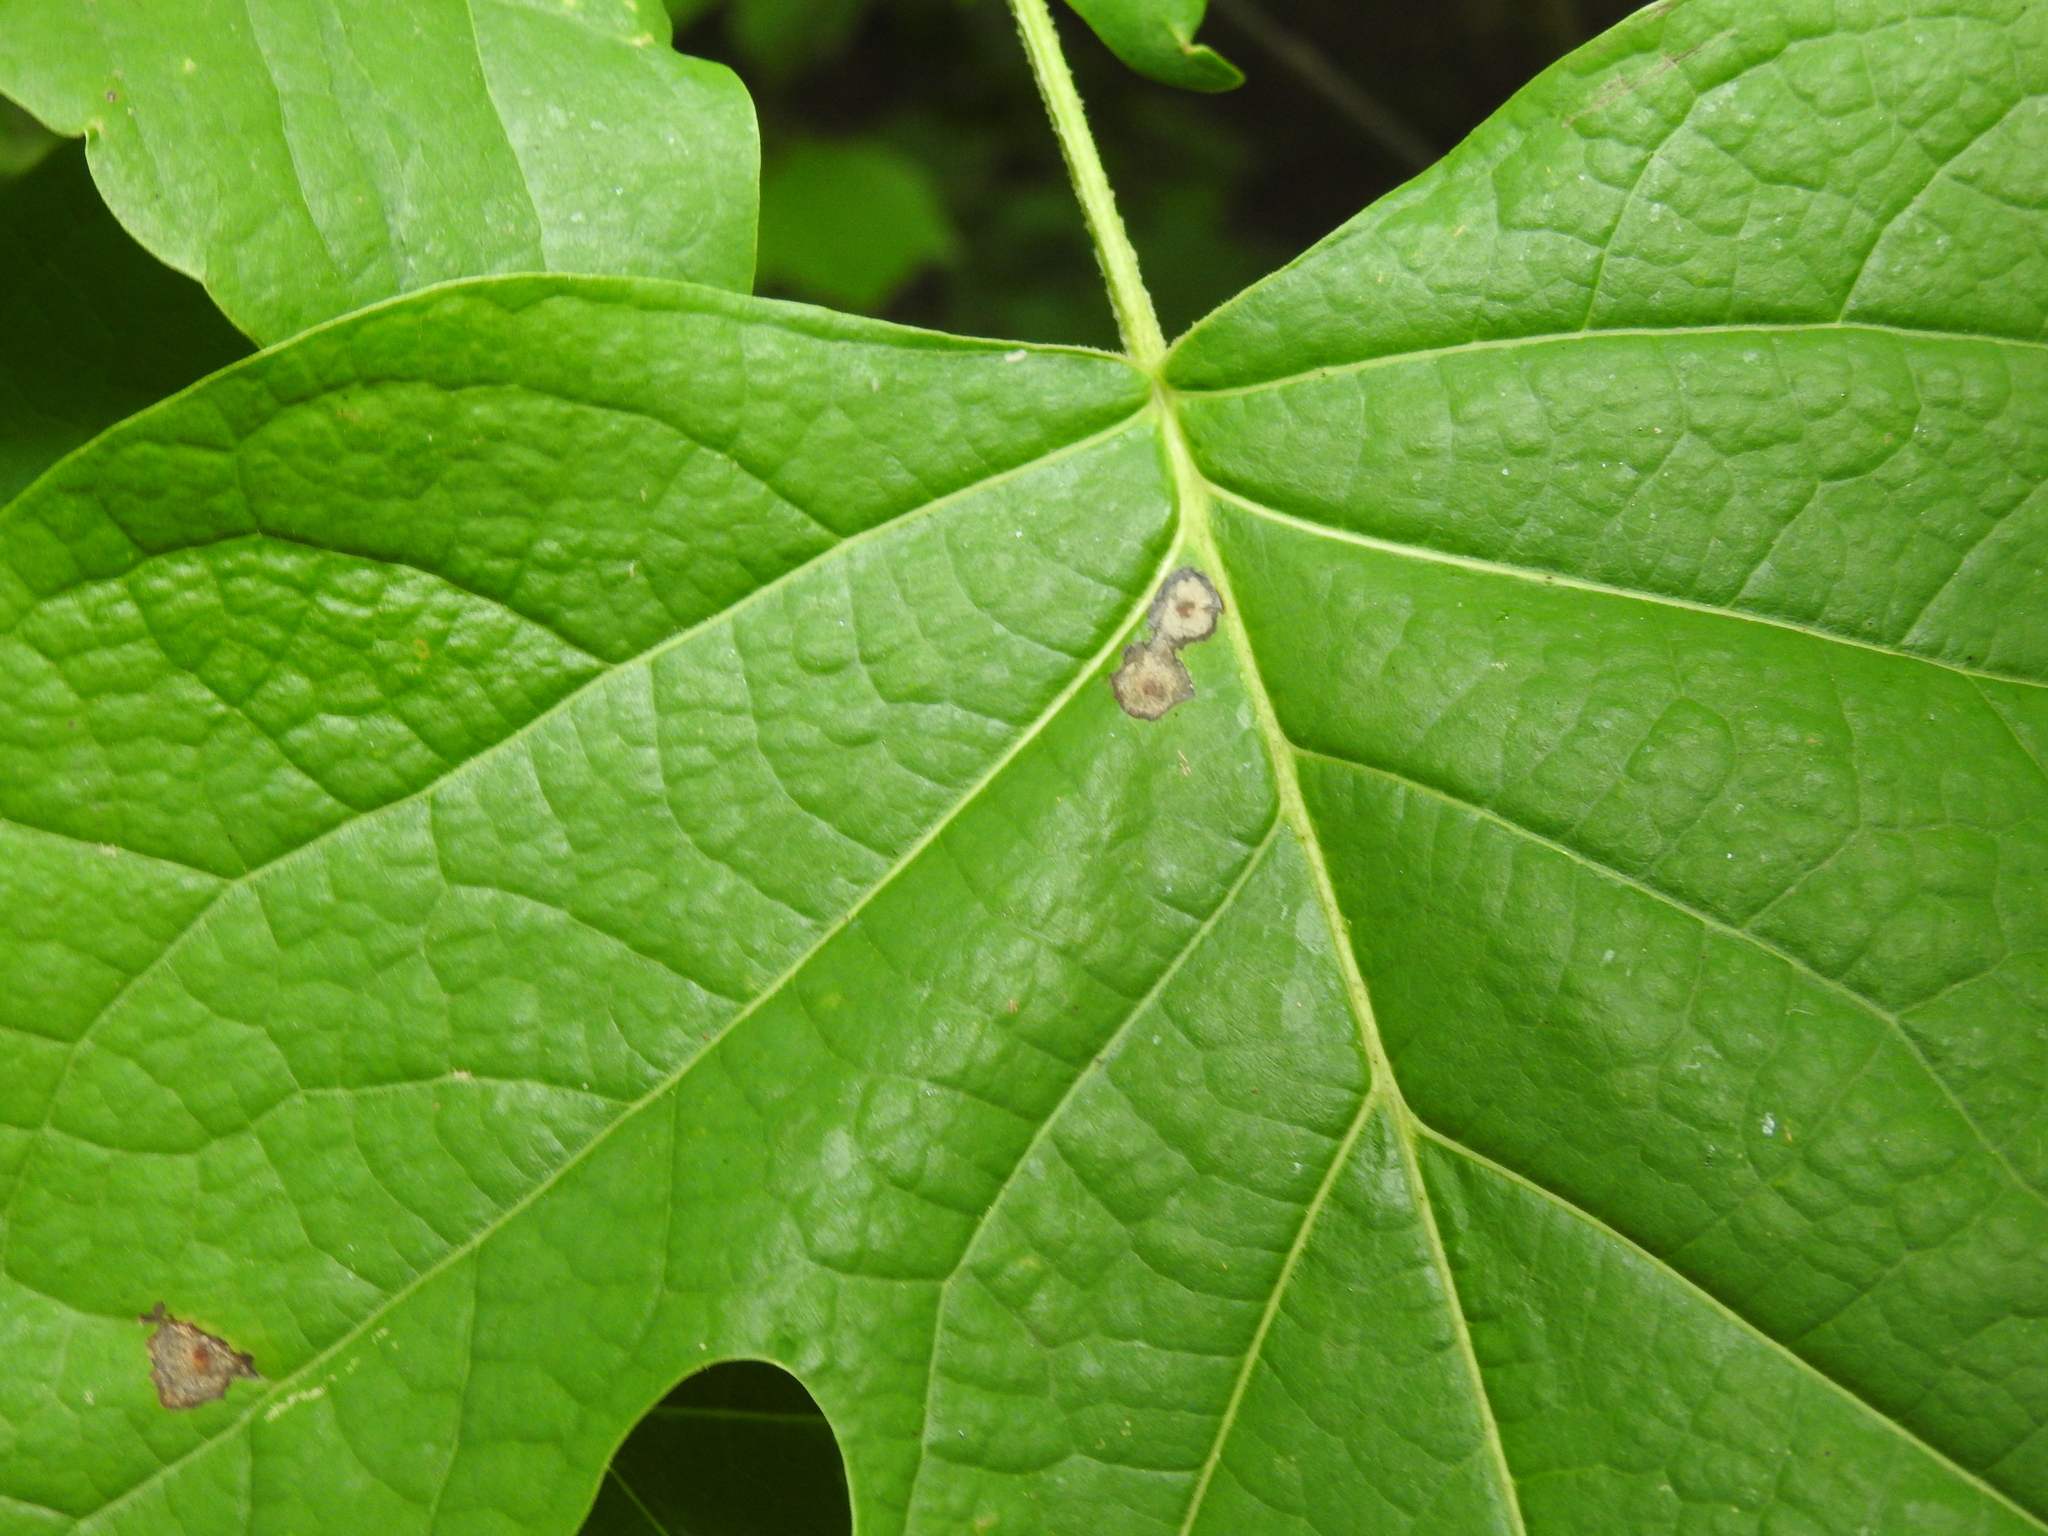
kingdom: Animalia
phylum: Arthropoda
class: Insecta
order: Diptera
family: Cecidomyiidae
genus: Resseliella
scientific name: Resseliella liriodendri
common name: Tulip tree leaf spot gall midge
